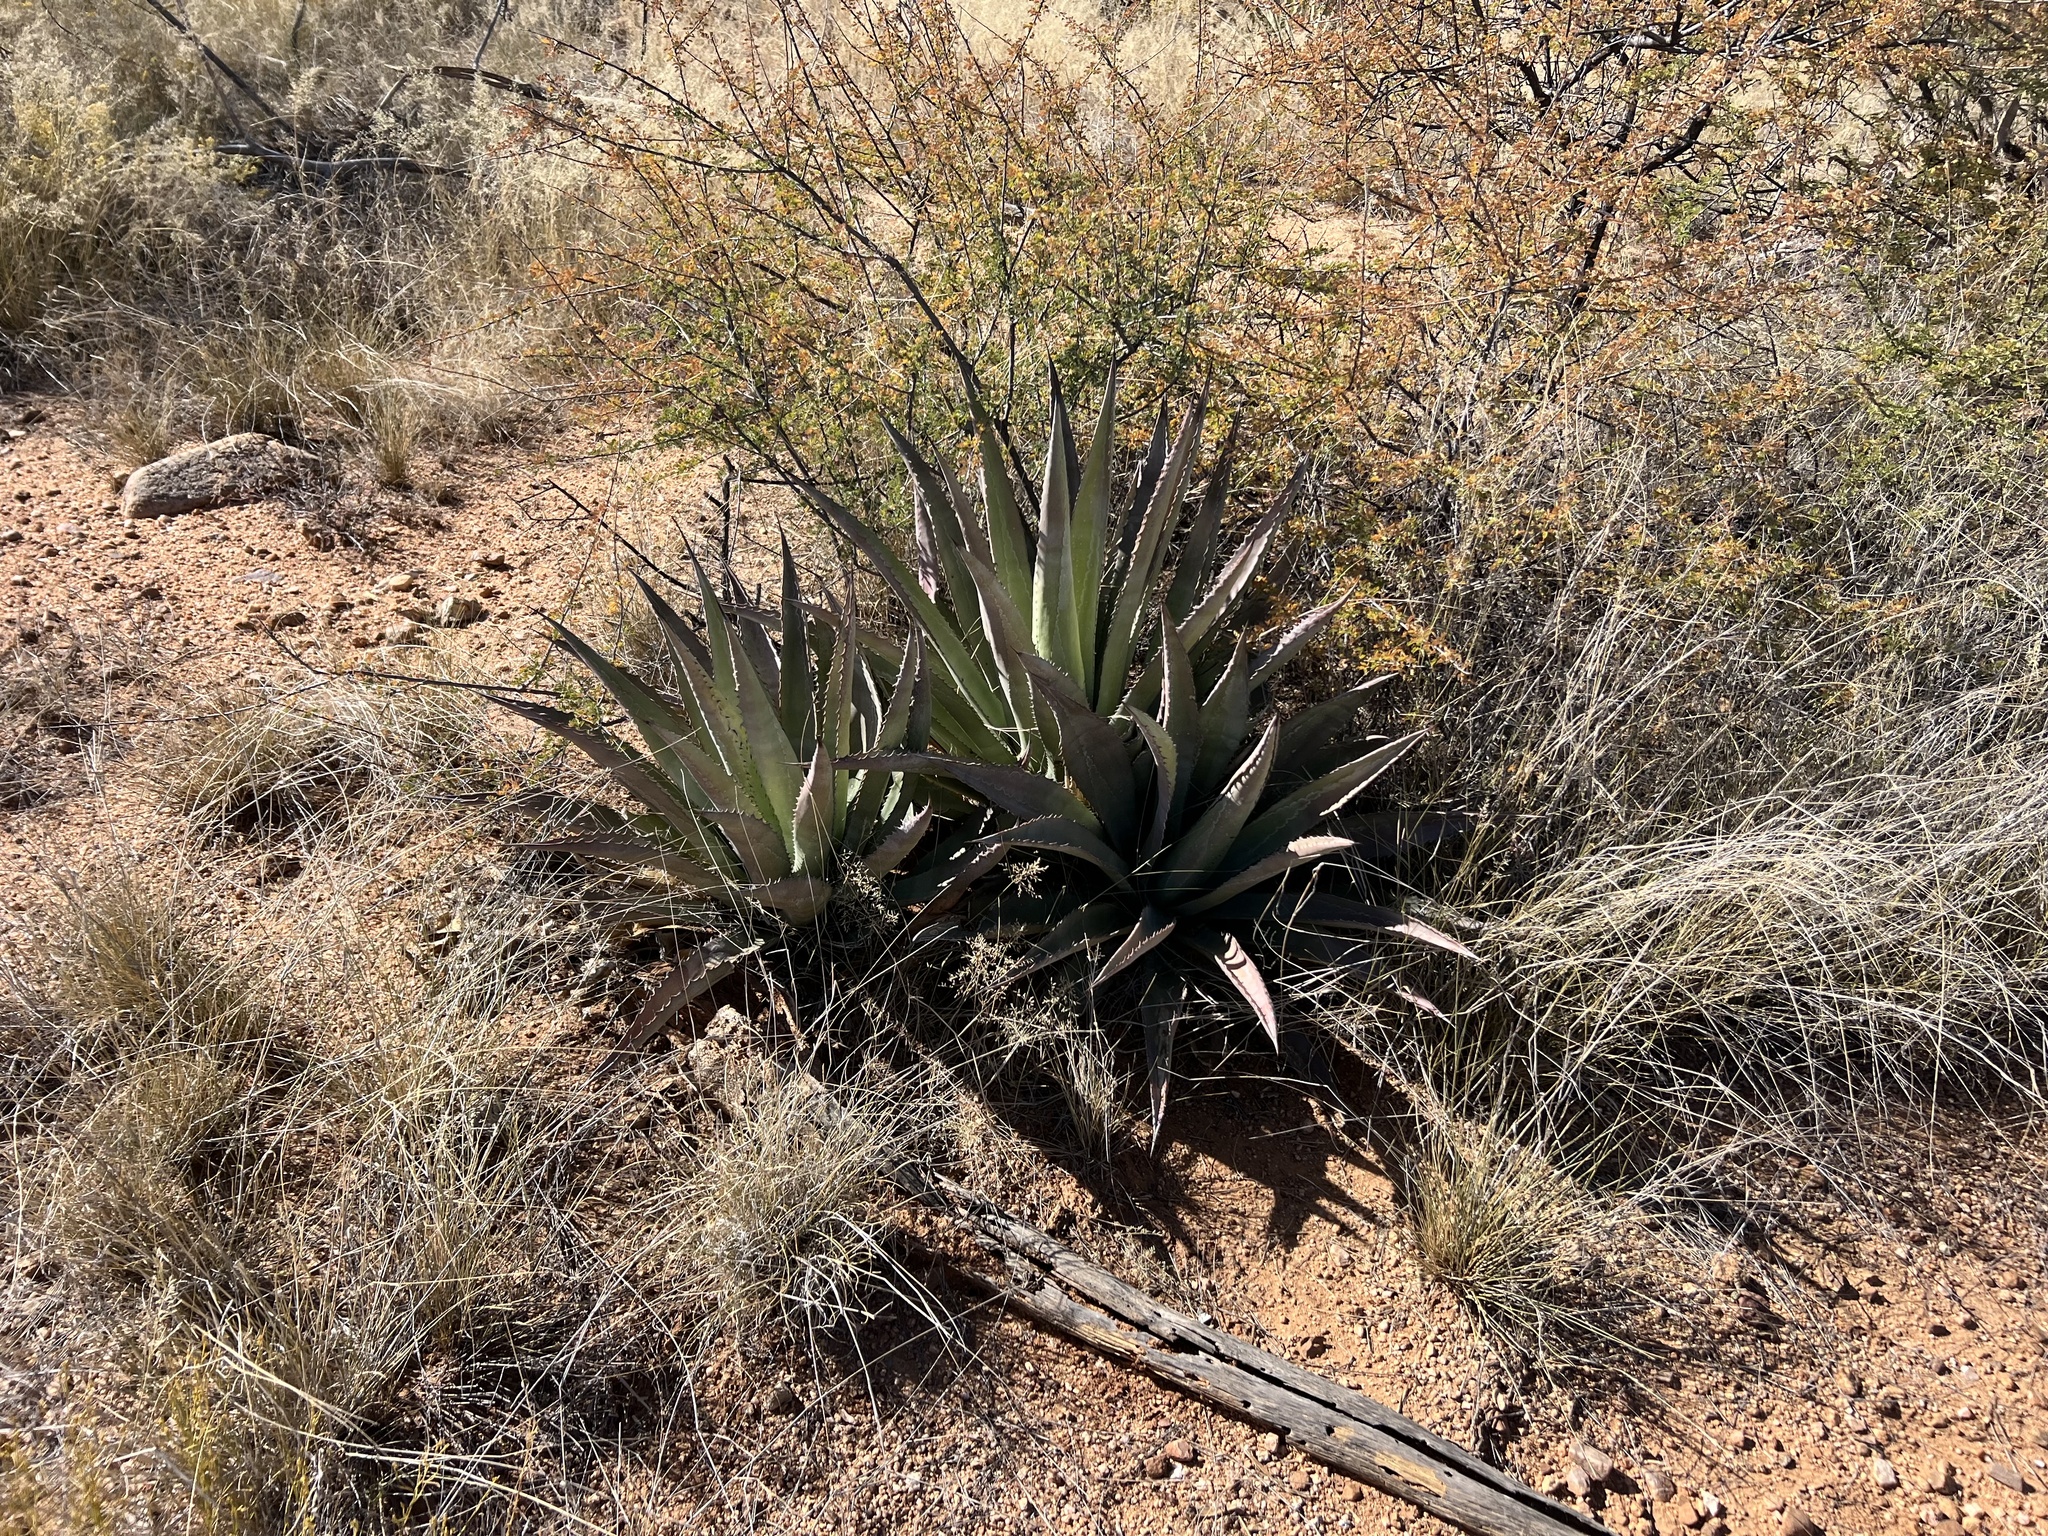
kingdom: Plantae
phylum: Tracheophyta
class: Liliopsida
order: Asparagales
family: Asparagaceae
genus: Agave
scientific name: Agave palmeri
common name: Palmer agave
